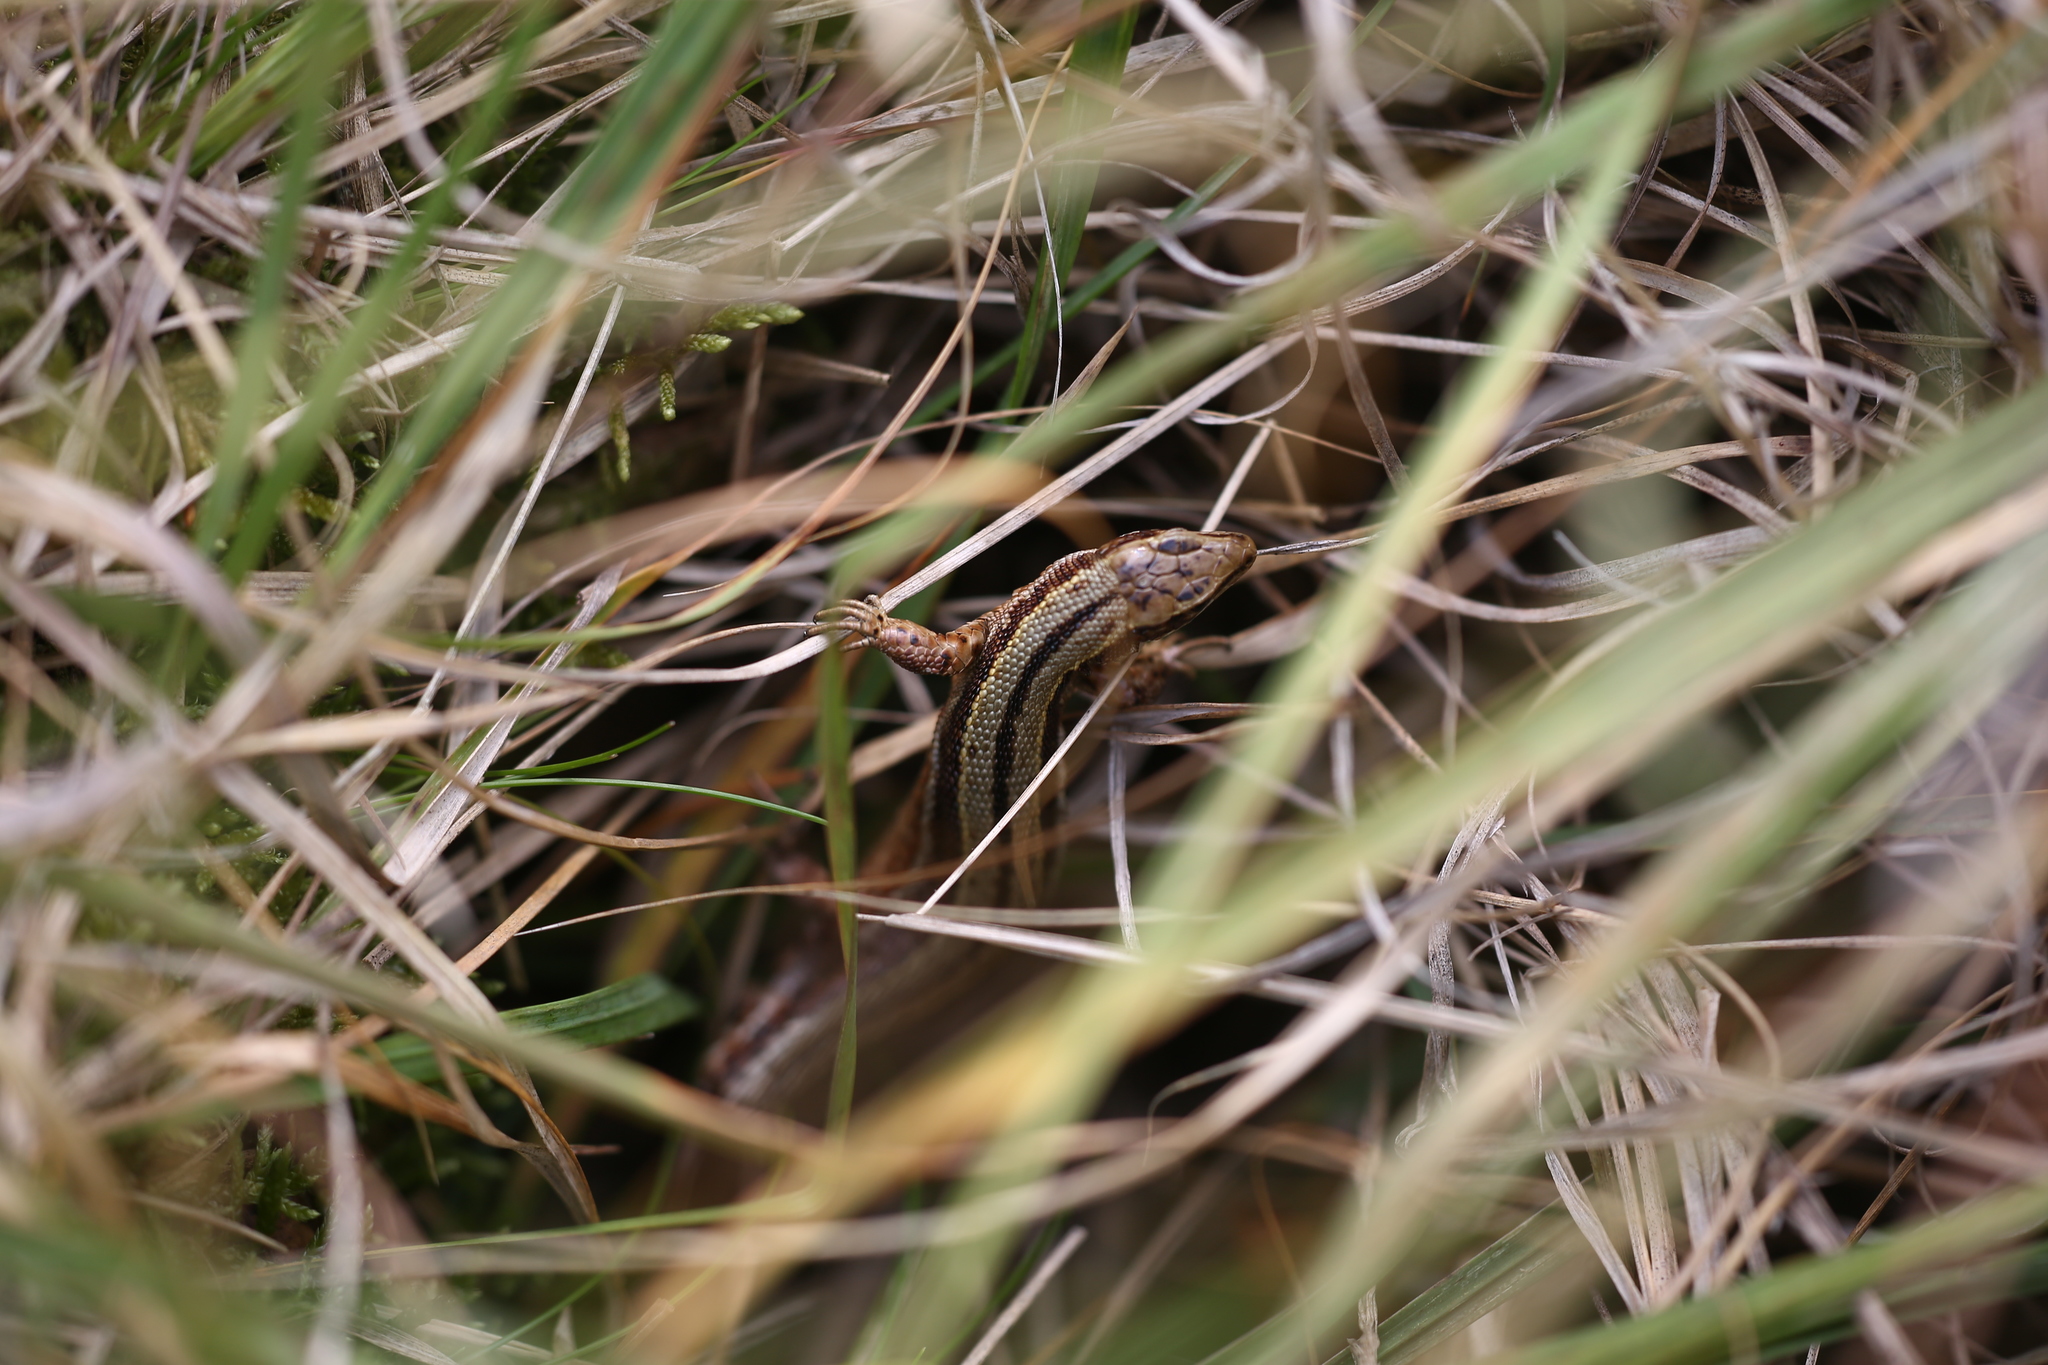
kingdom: Animalia
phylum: Chordata
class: Squamata
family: Lacertidae
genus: Zootoca
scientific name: Zootoca vivipara
